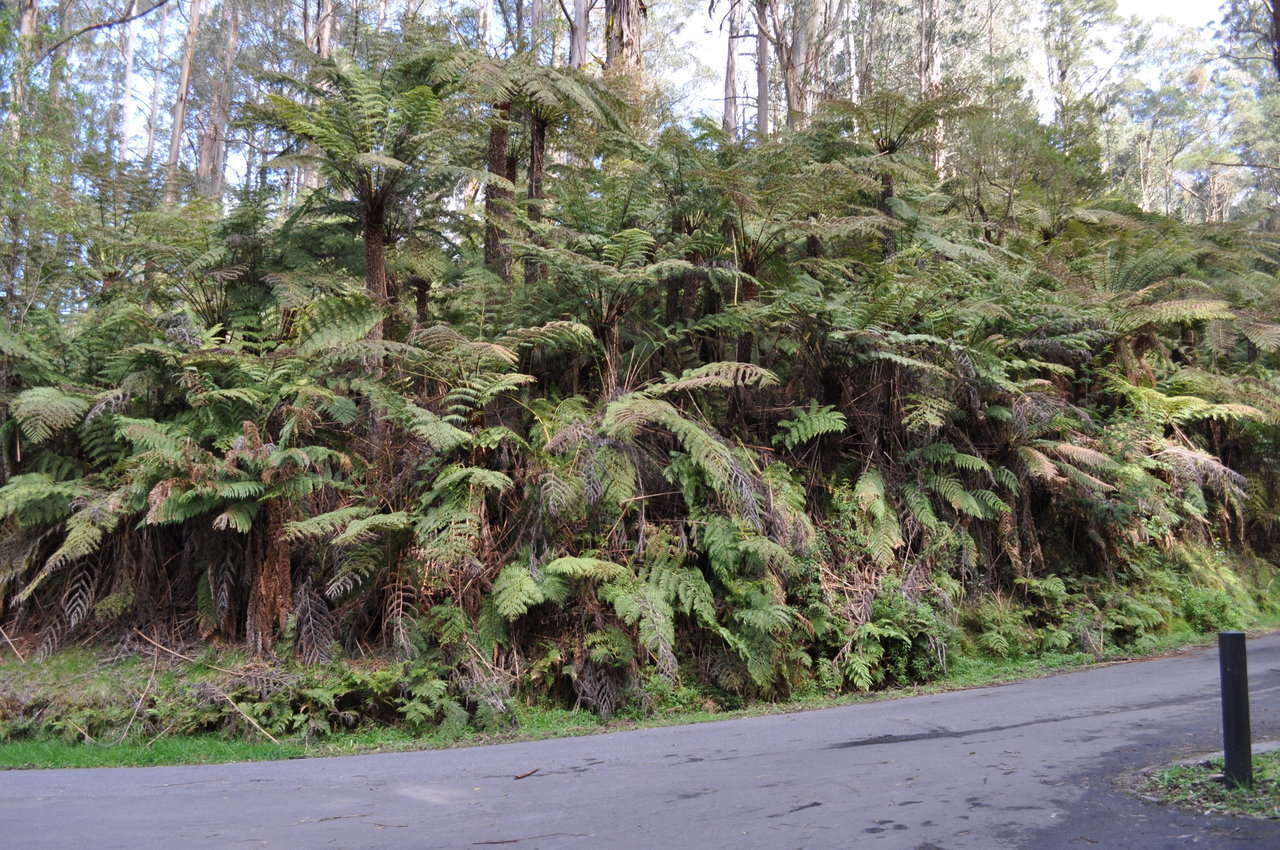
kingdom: Plantae
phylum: Tracheophyta
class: Polypodiopsida
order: Cyatheales
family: Cyatheaceae
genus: Alsophila
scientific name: Alsophila australis
